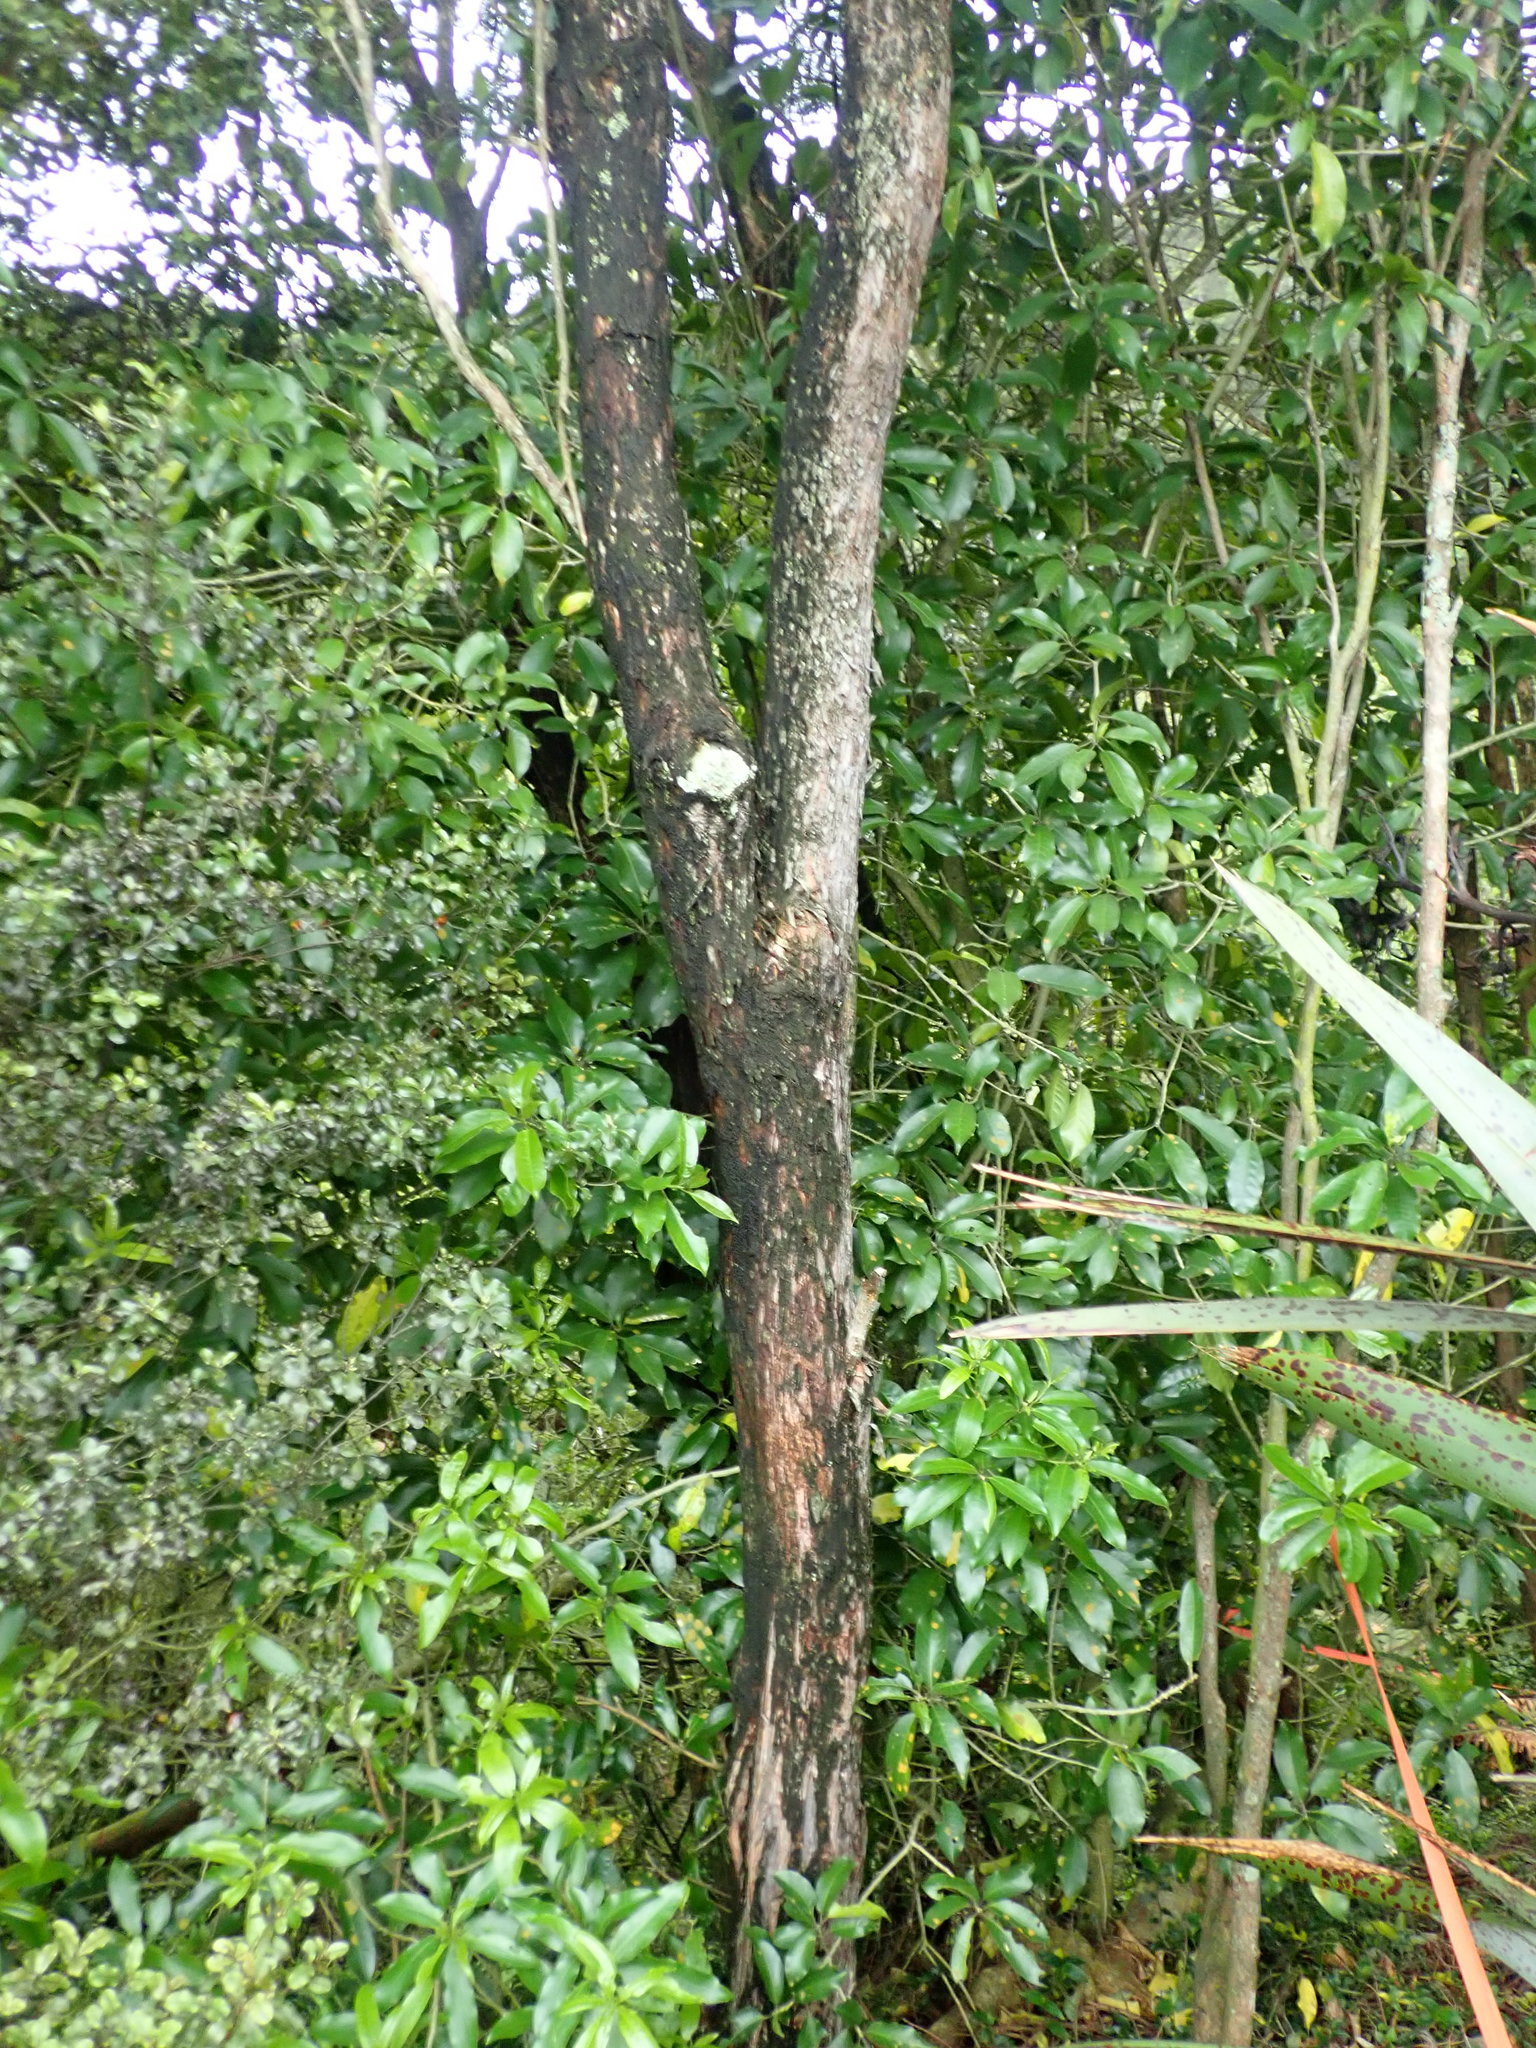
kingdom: Plantae
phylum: Tracheophyta
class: Magnoliopsida
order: Malpighiales
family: Violaceae
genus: Melicytus
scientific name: Melicytus ramiflorus
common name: Mahoe
